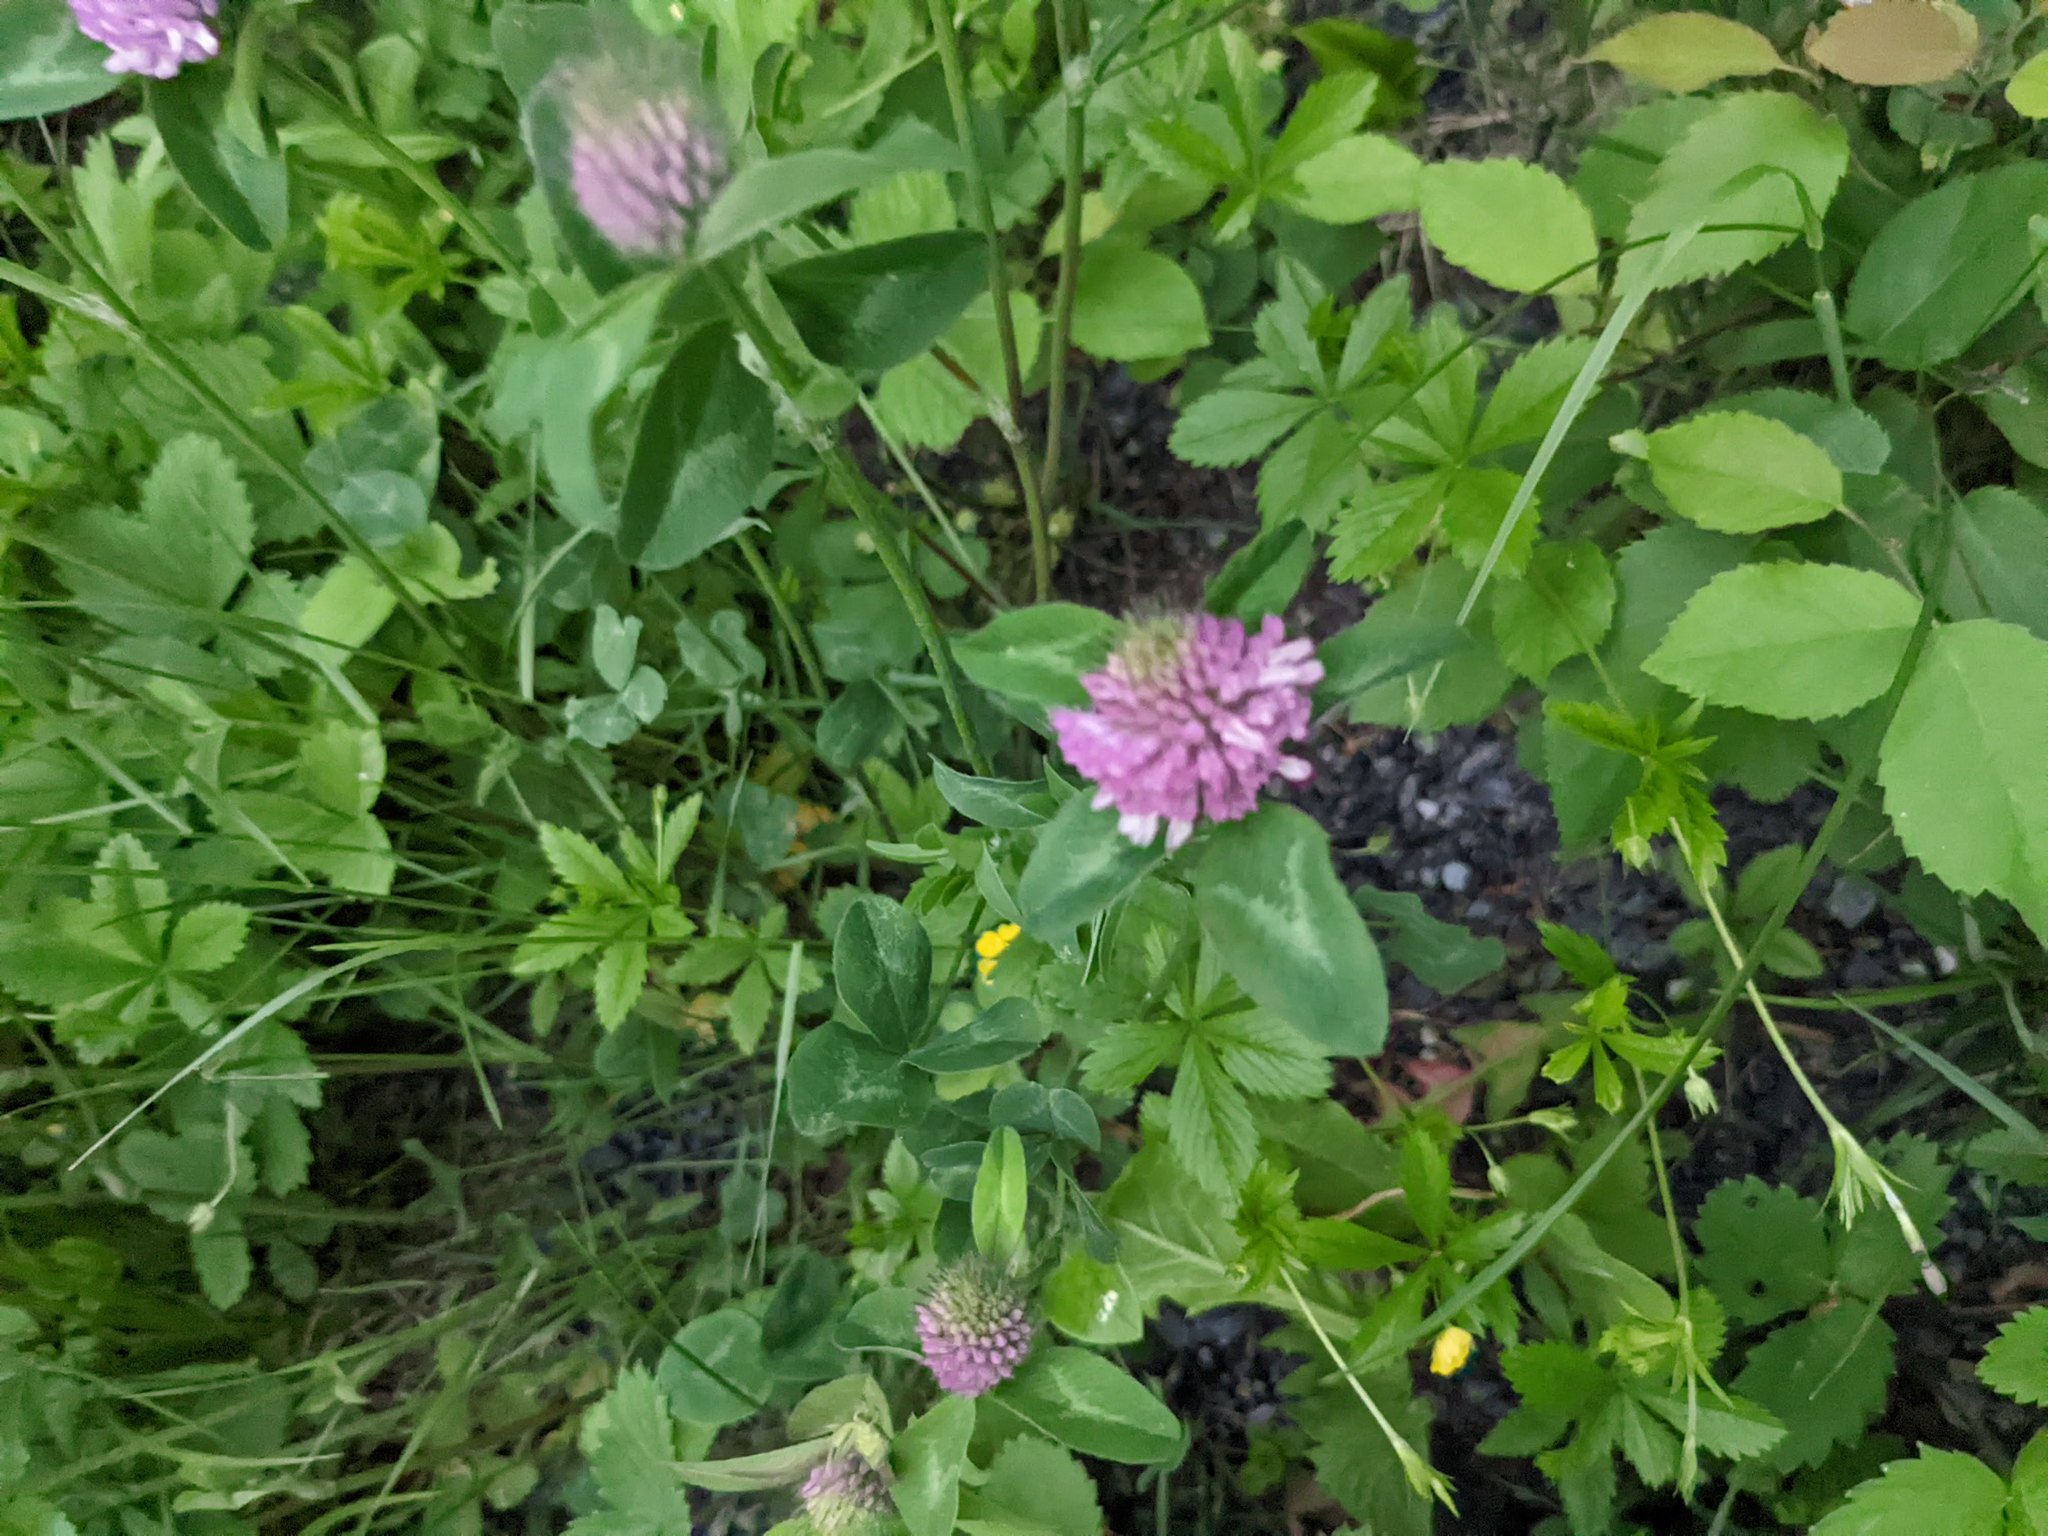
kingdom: Plantae
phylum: Tracheophyta
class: Magnoliopsida
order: Fabales
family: Fabaceae
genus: Trifolium
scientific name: Trifolium pratense
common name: Red clover
